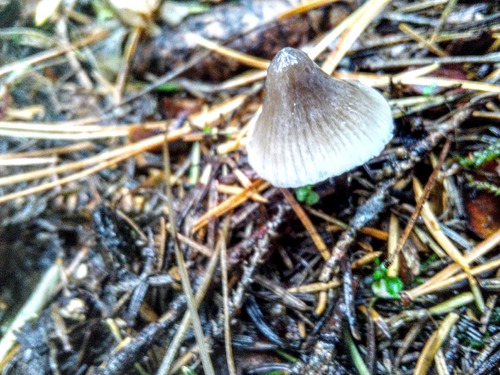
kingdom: Fungi
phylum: Basidiomycota
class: Agaricomycetes
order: Agaricales
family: Mycenaceae
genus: Mycena
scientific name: Mycena
